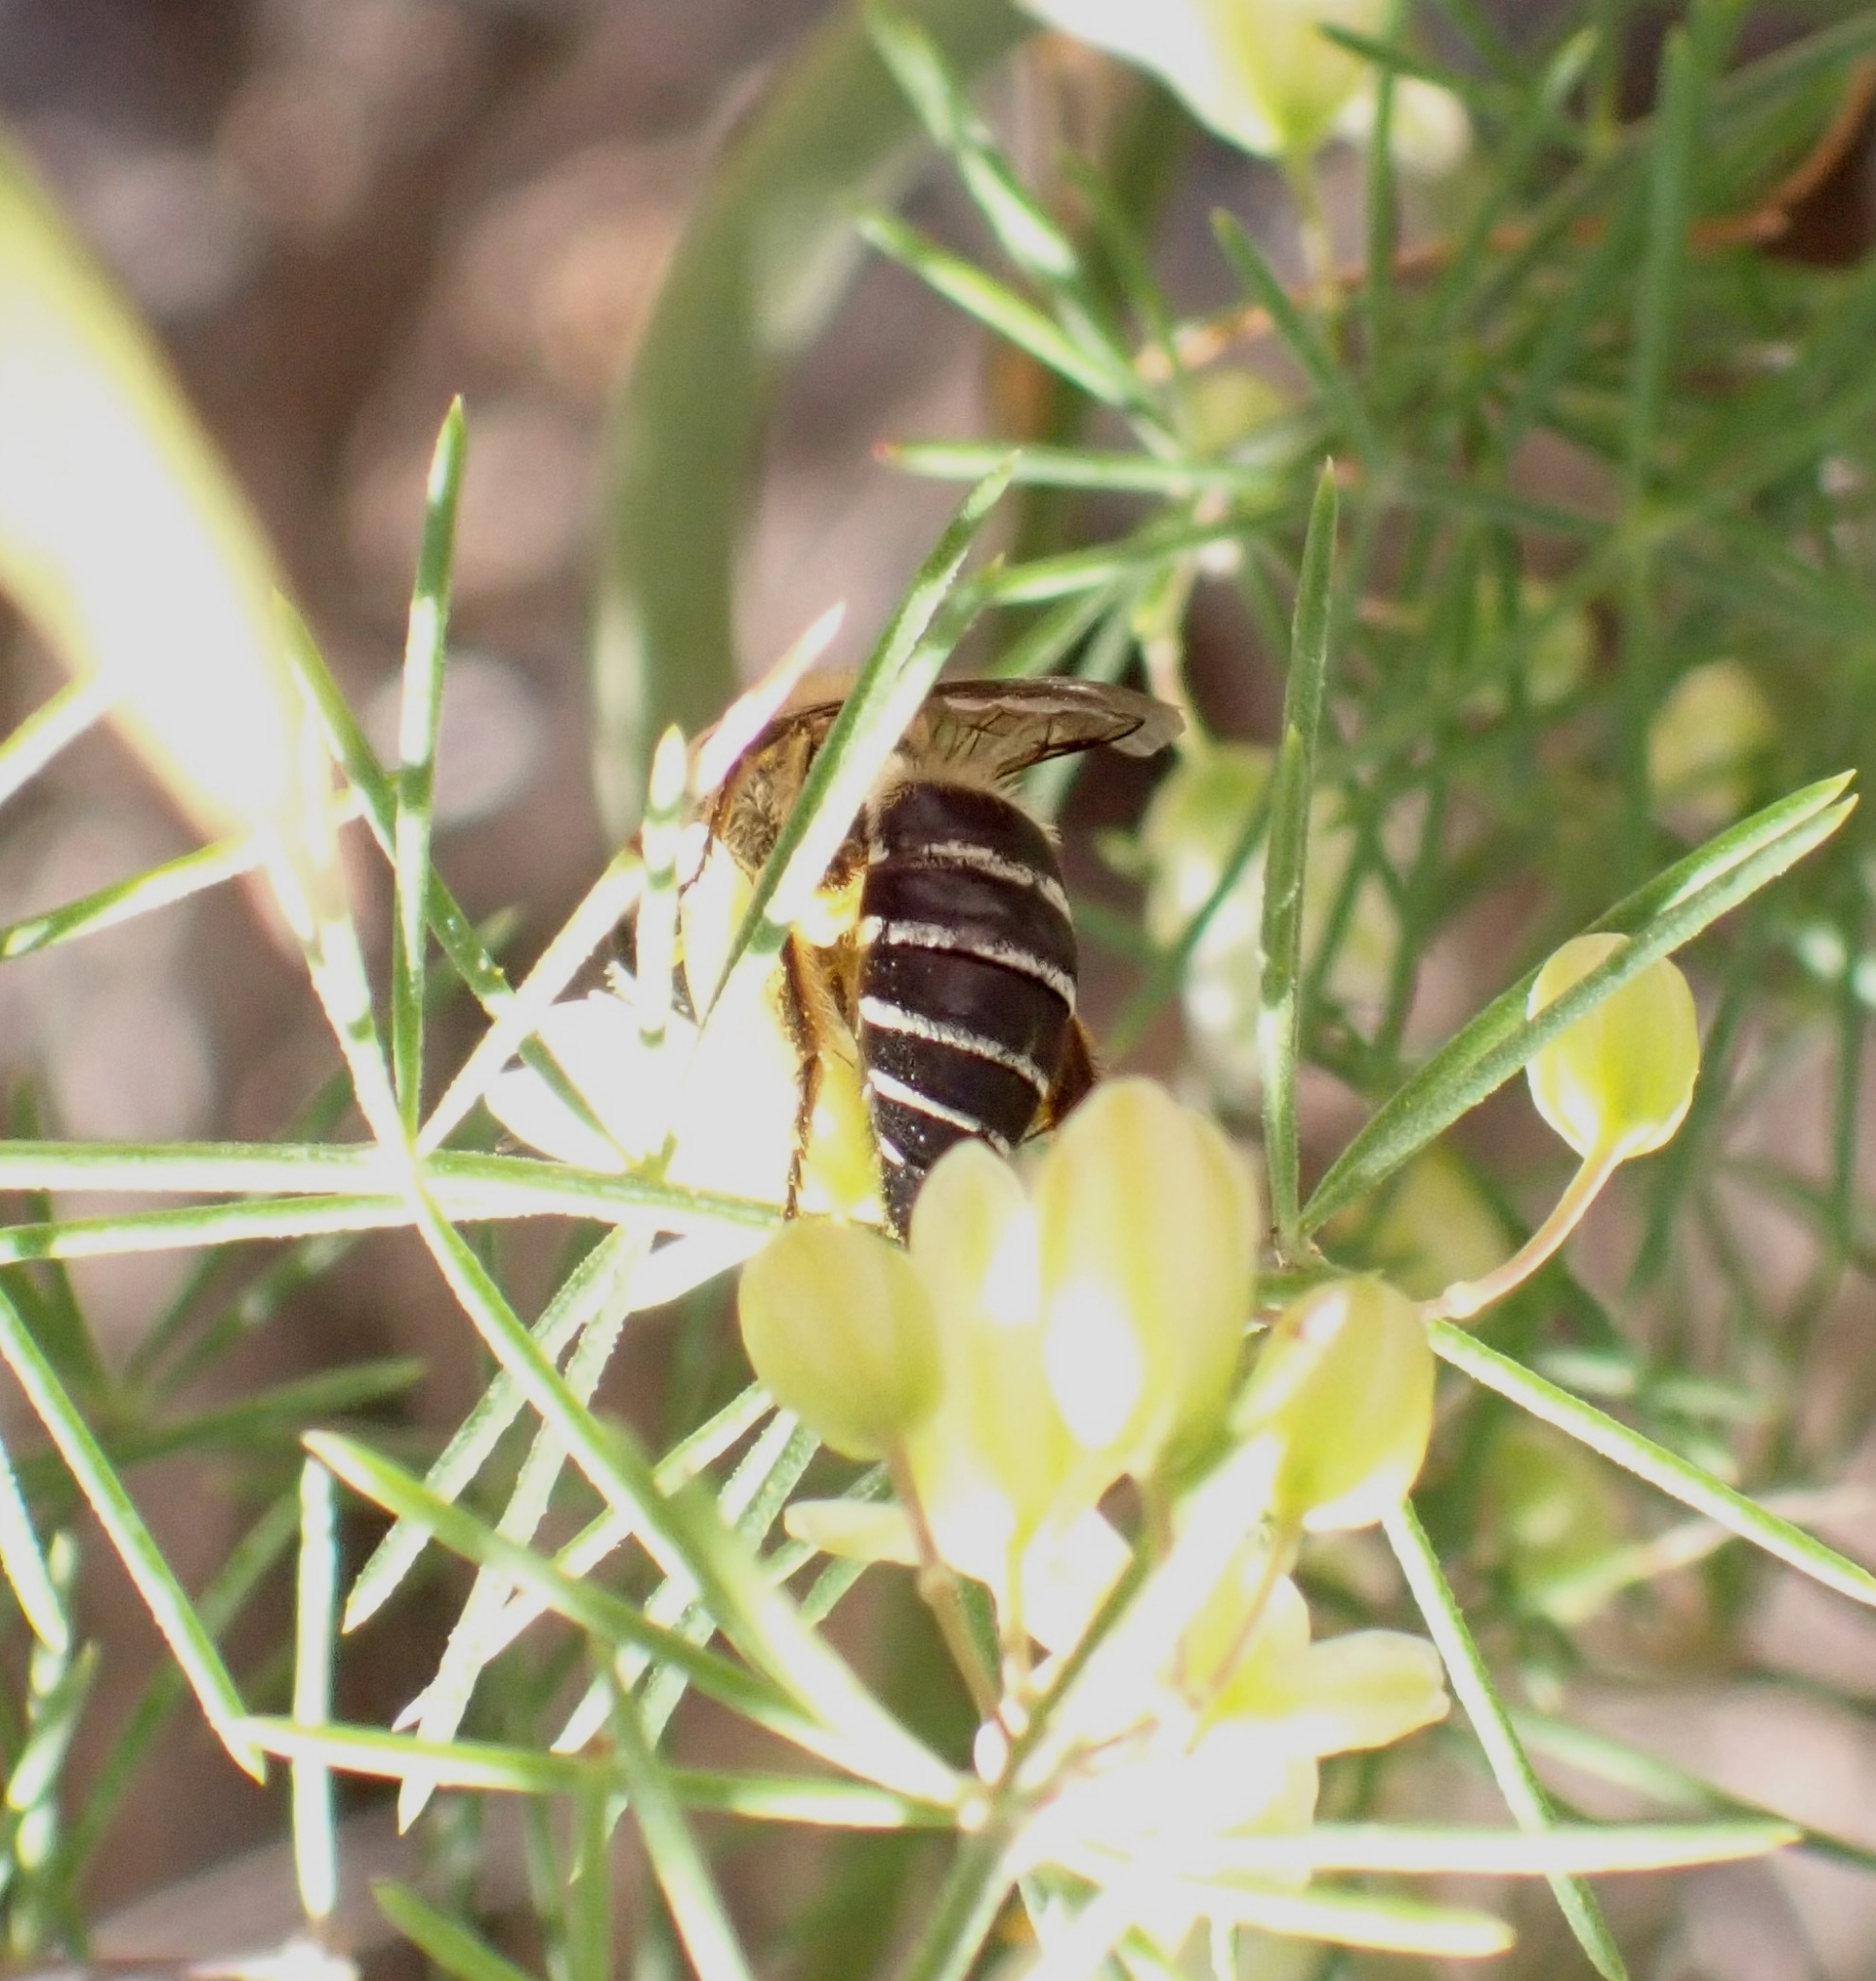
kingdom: Animalia
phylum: Arthropoda
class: Insecta
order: Hymenoptera
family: Colletidae
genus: Colletes
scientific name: Colletes dimidiatus
